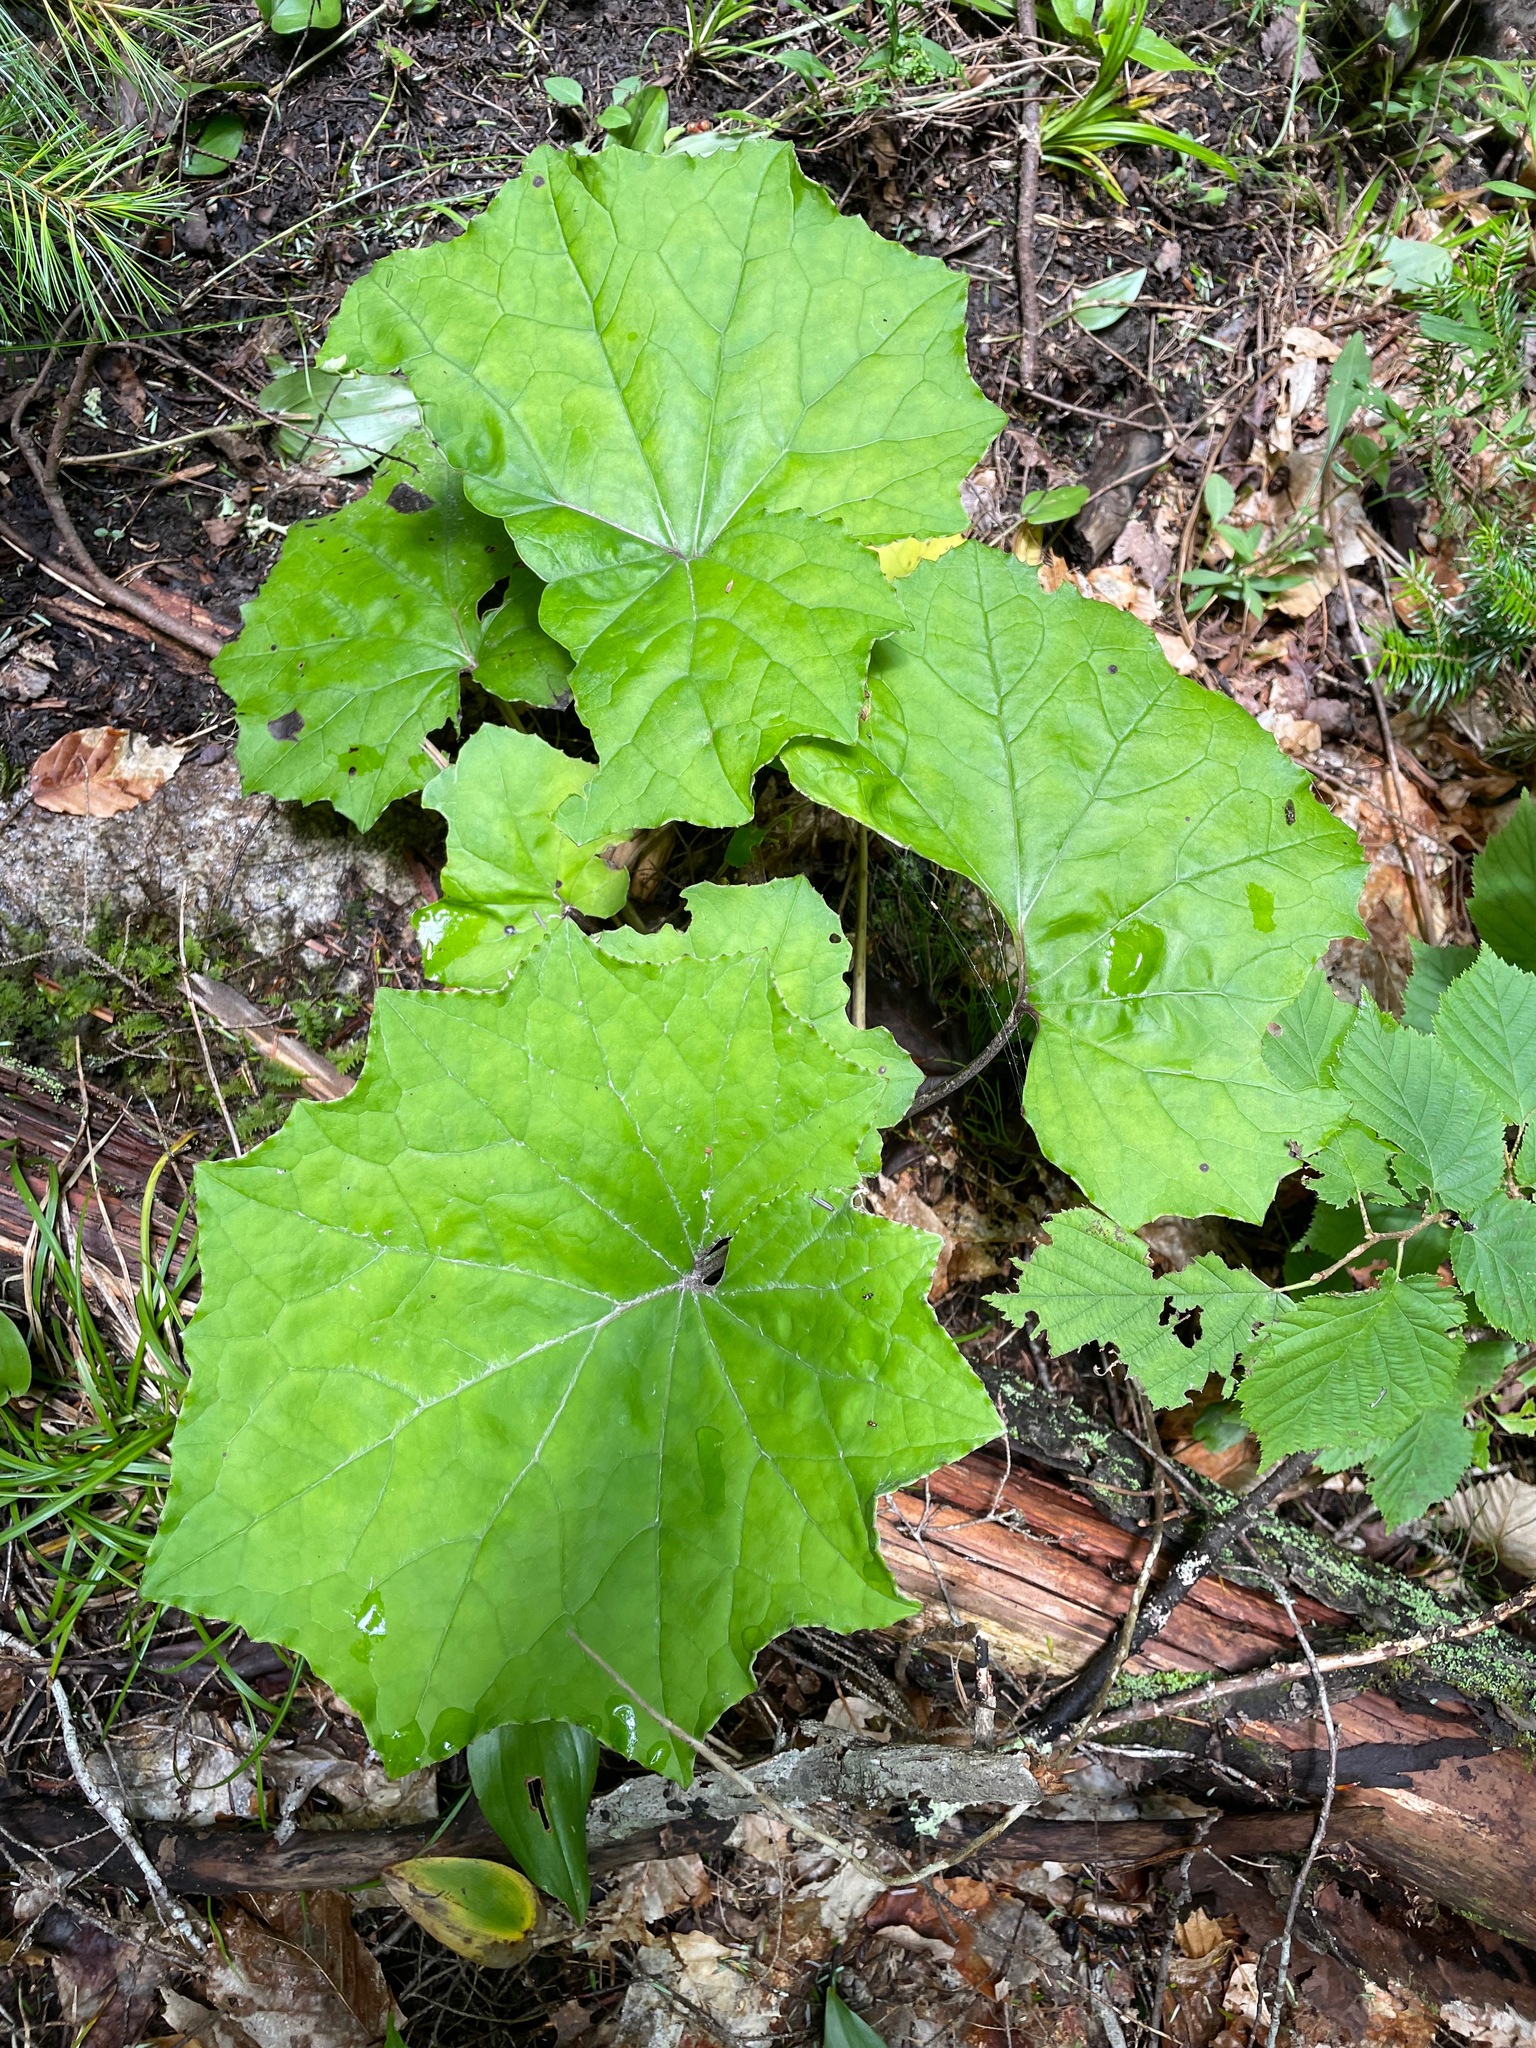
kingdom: Plantae
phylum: Tracheophyta
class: Magnoliopsida
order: Asterales
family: Asteraceae
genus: Tussilago
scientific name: Tussilago farfara
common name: Coltsfoot
